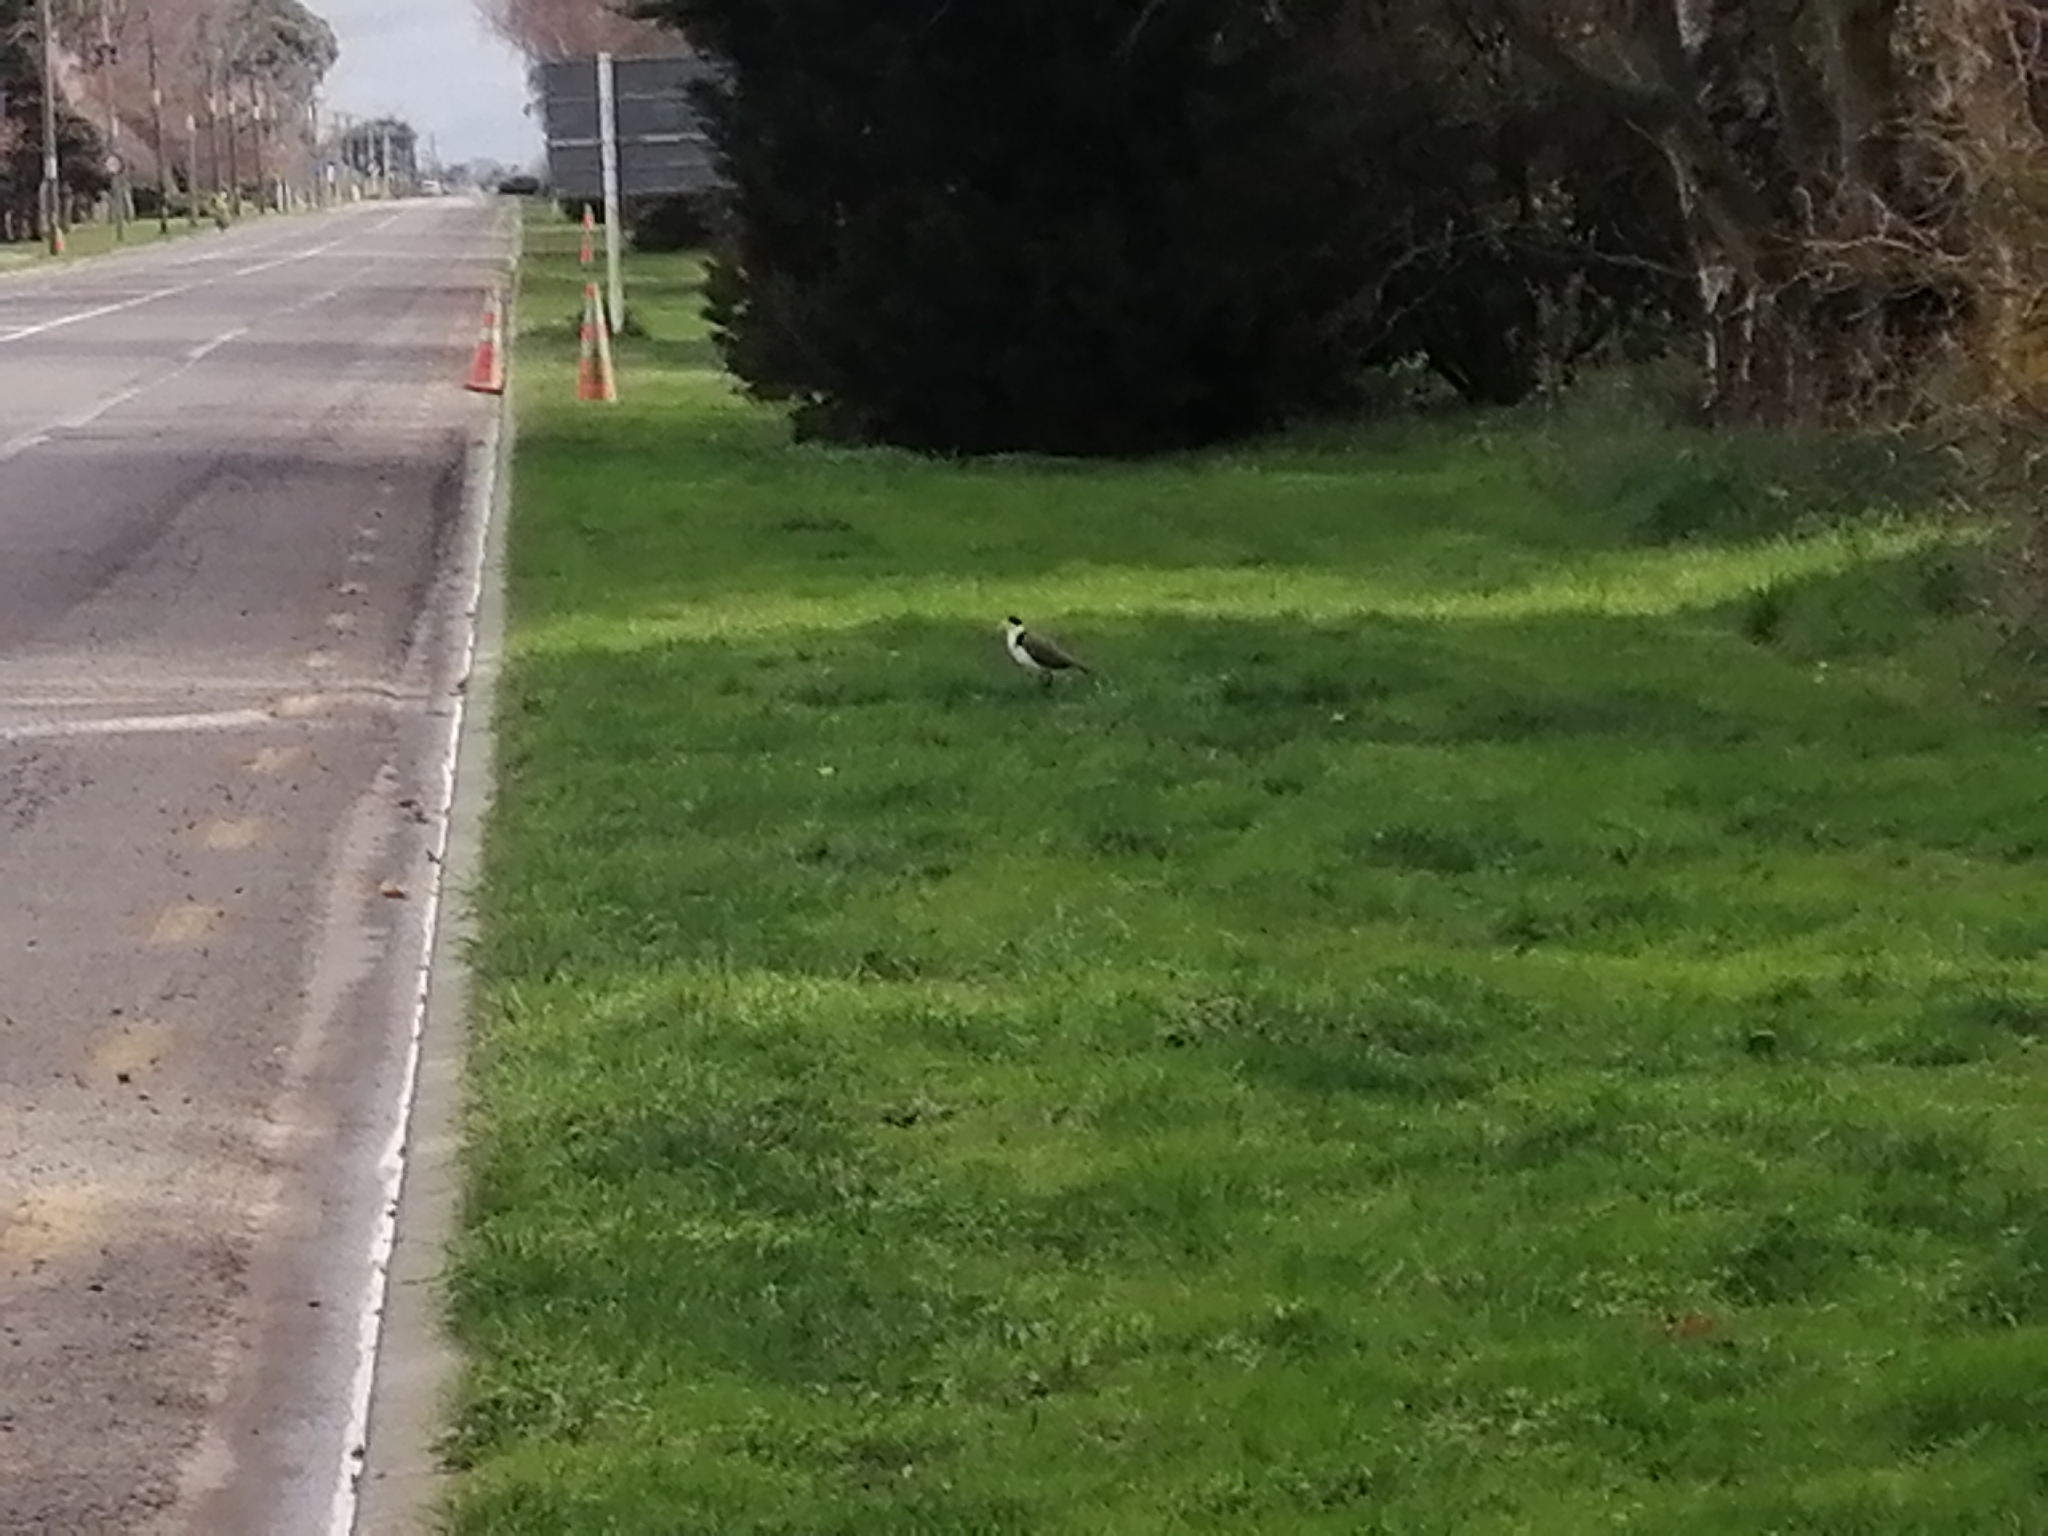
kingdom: Animalia
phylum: Chordata
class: Aves
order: Charadriiformes
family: Charadriidae
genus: Vanellus
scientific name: Vanellus miles
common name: Masked lapwing
